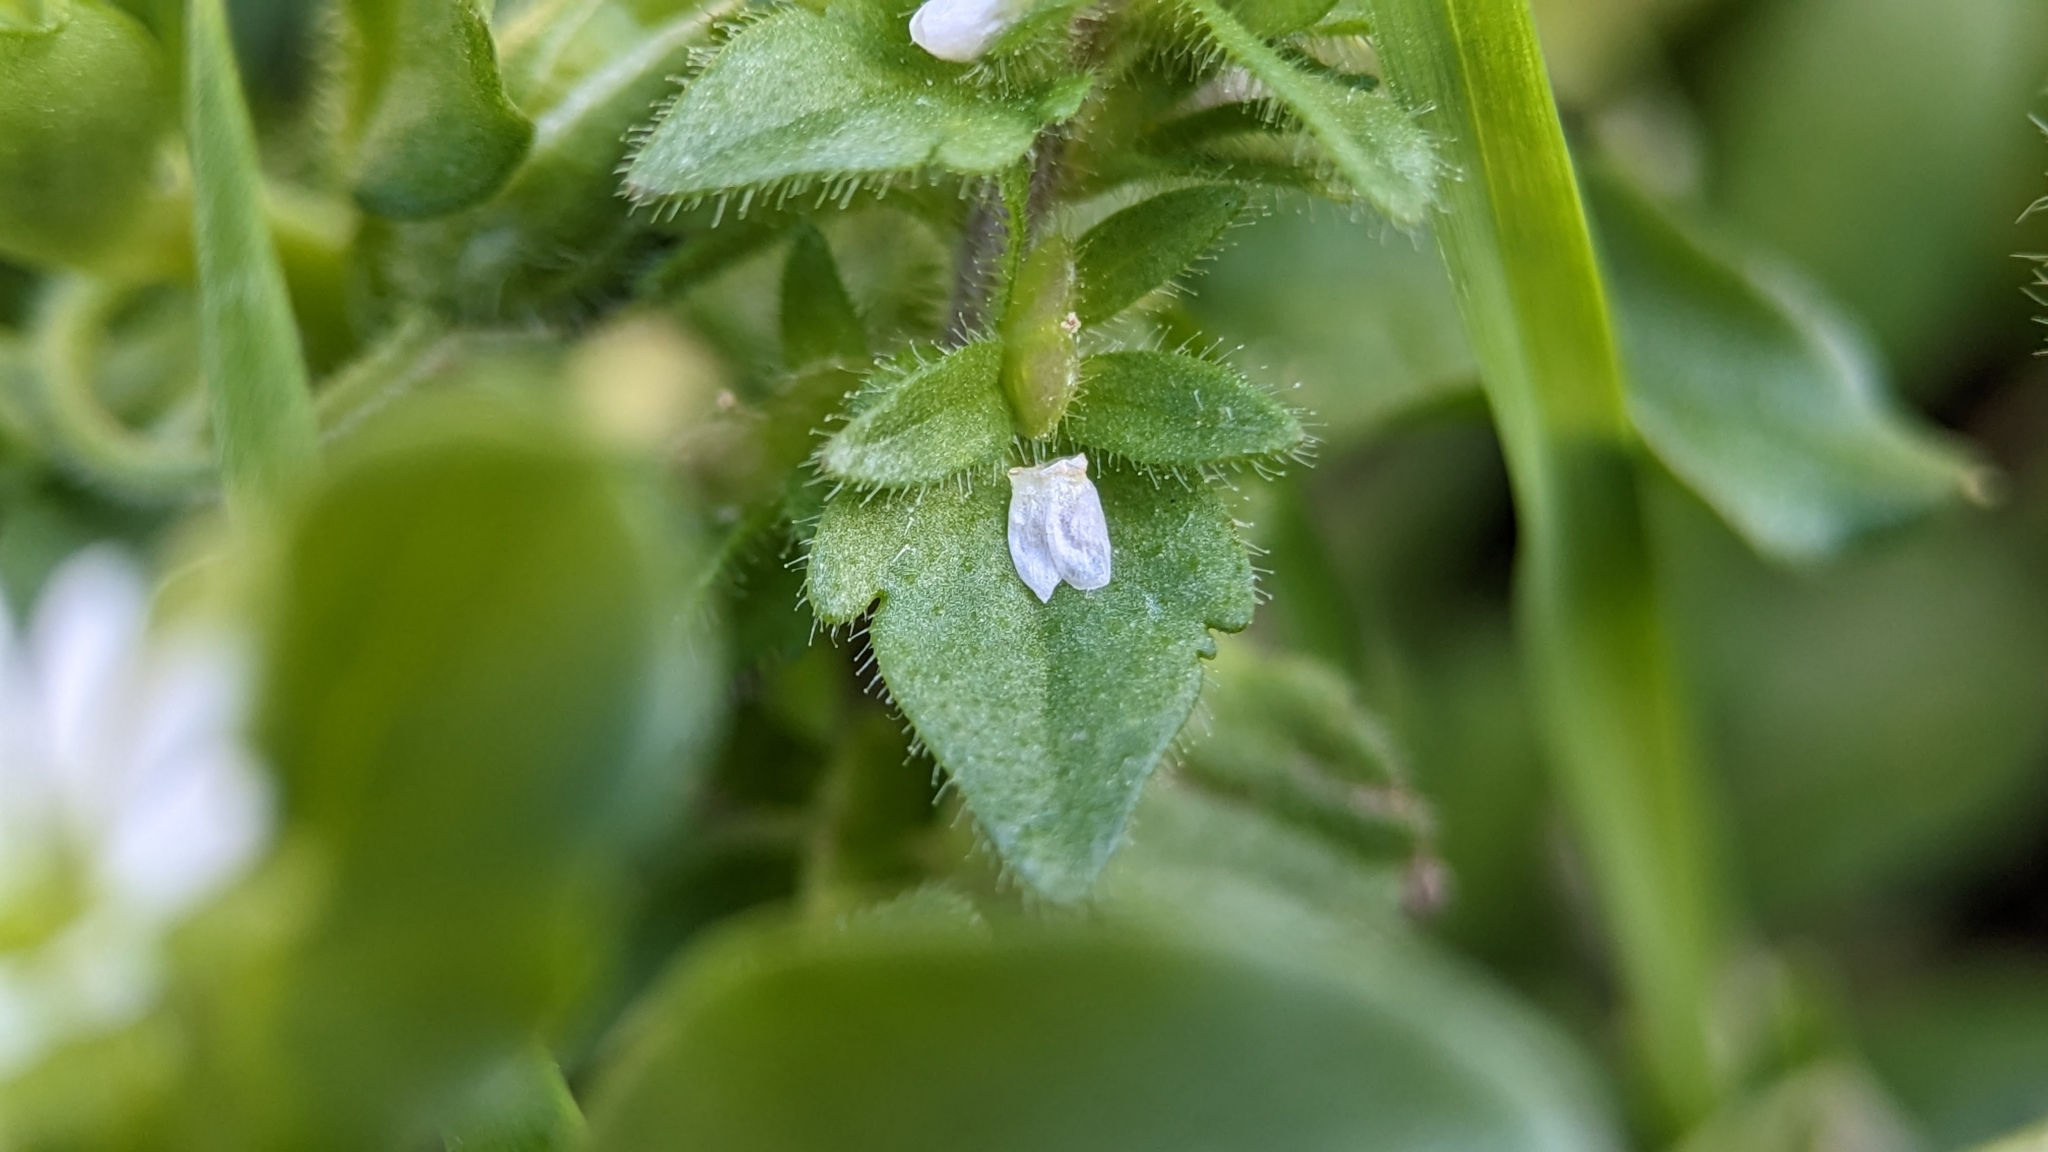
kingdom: Plantae
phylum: Tracheophyta
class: Magnoliopsida
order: Lamiales
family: Plantaginaceae
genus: Veronica
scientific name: Veronica arvensis
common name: Corn speedwell
